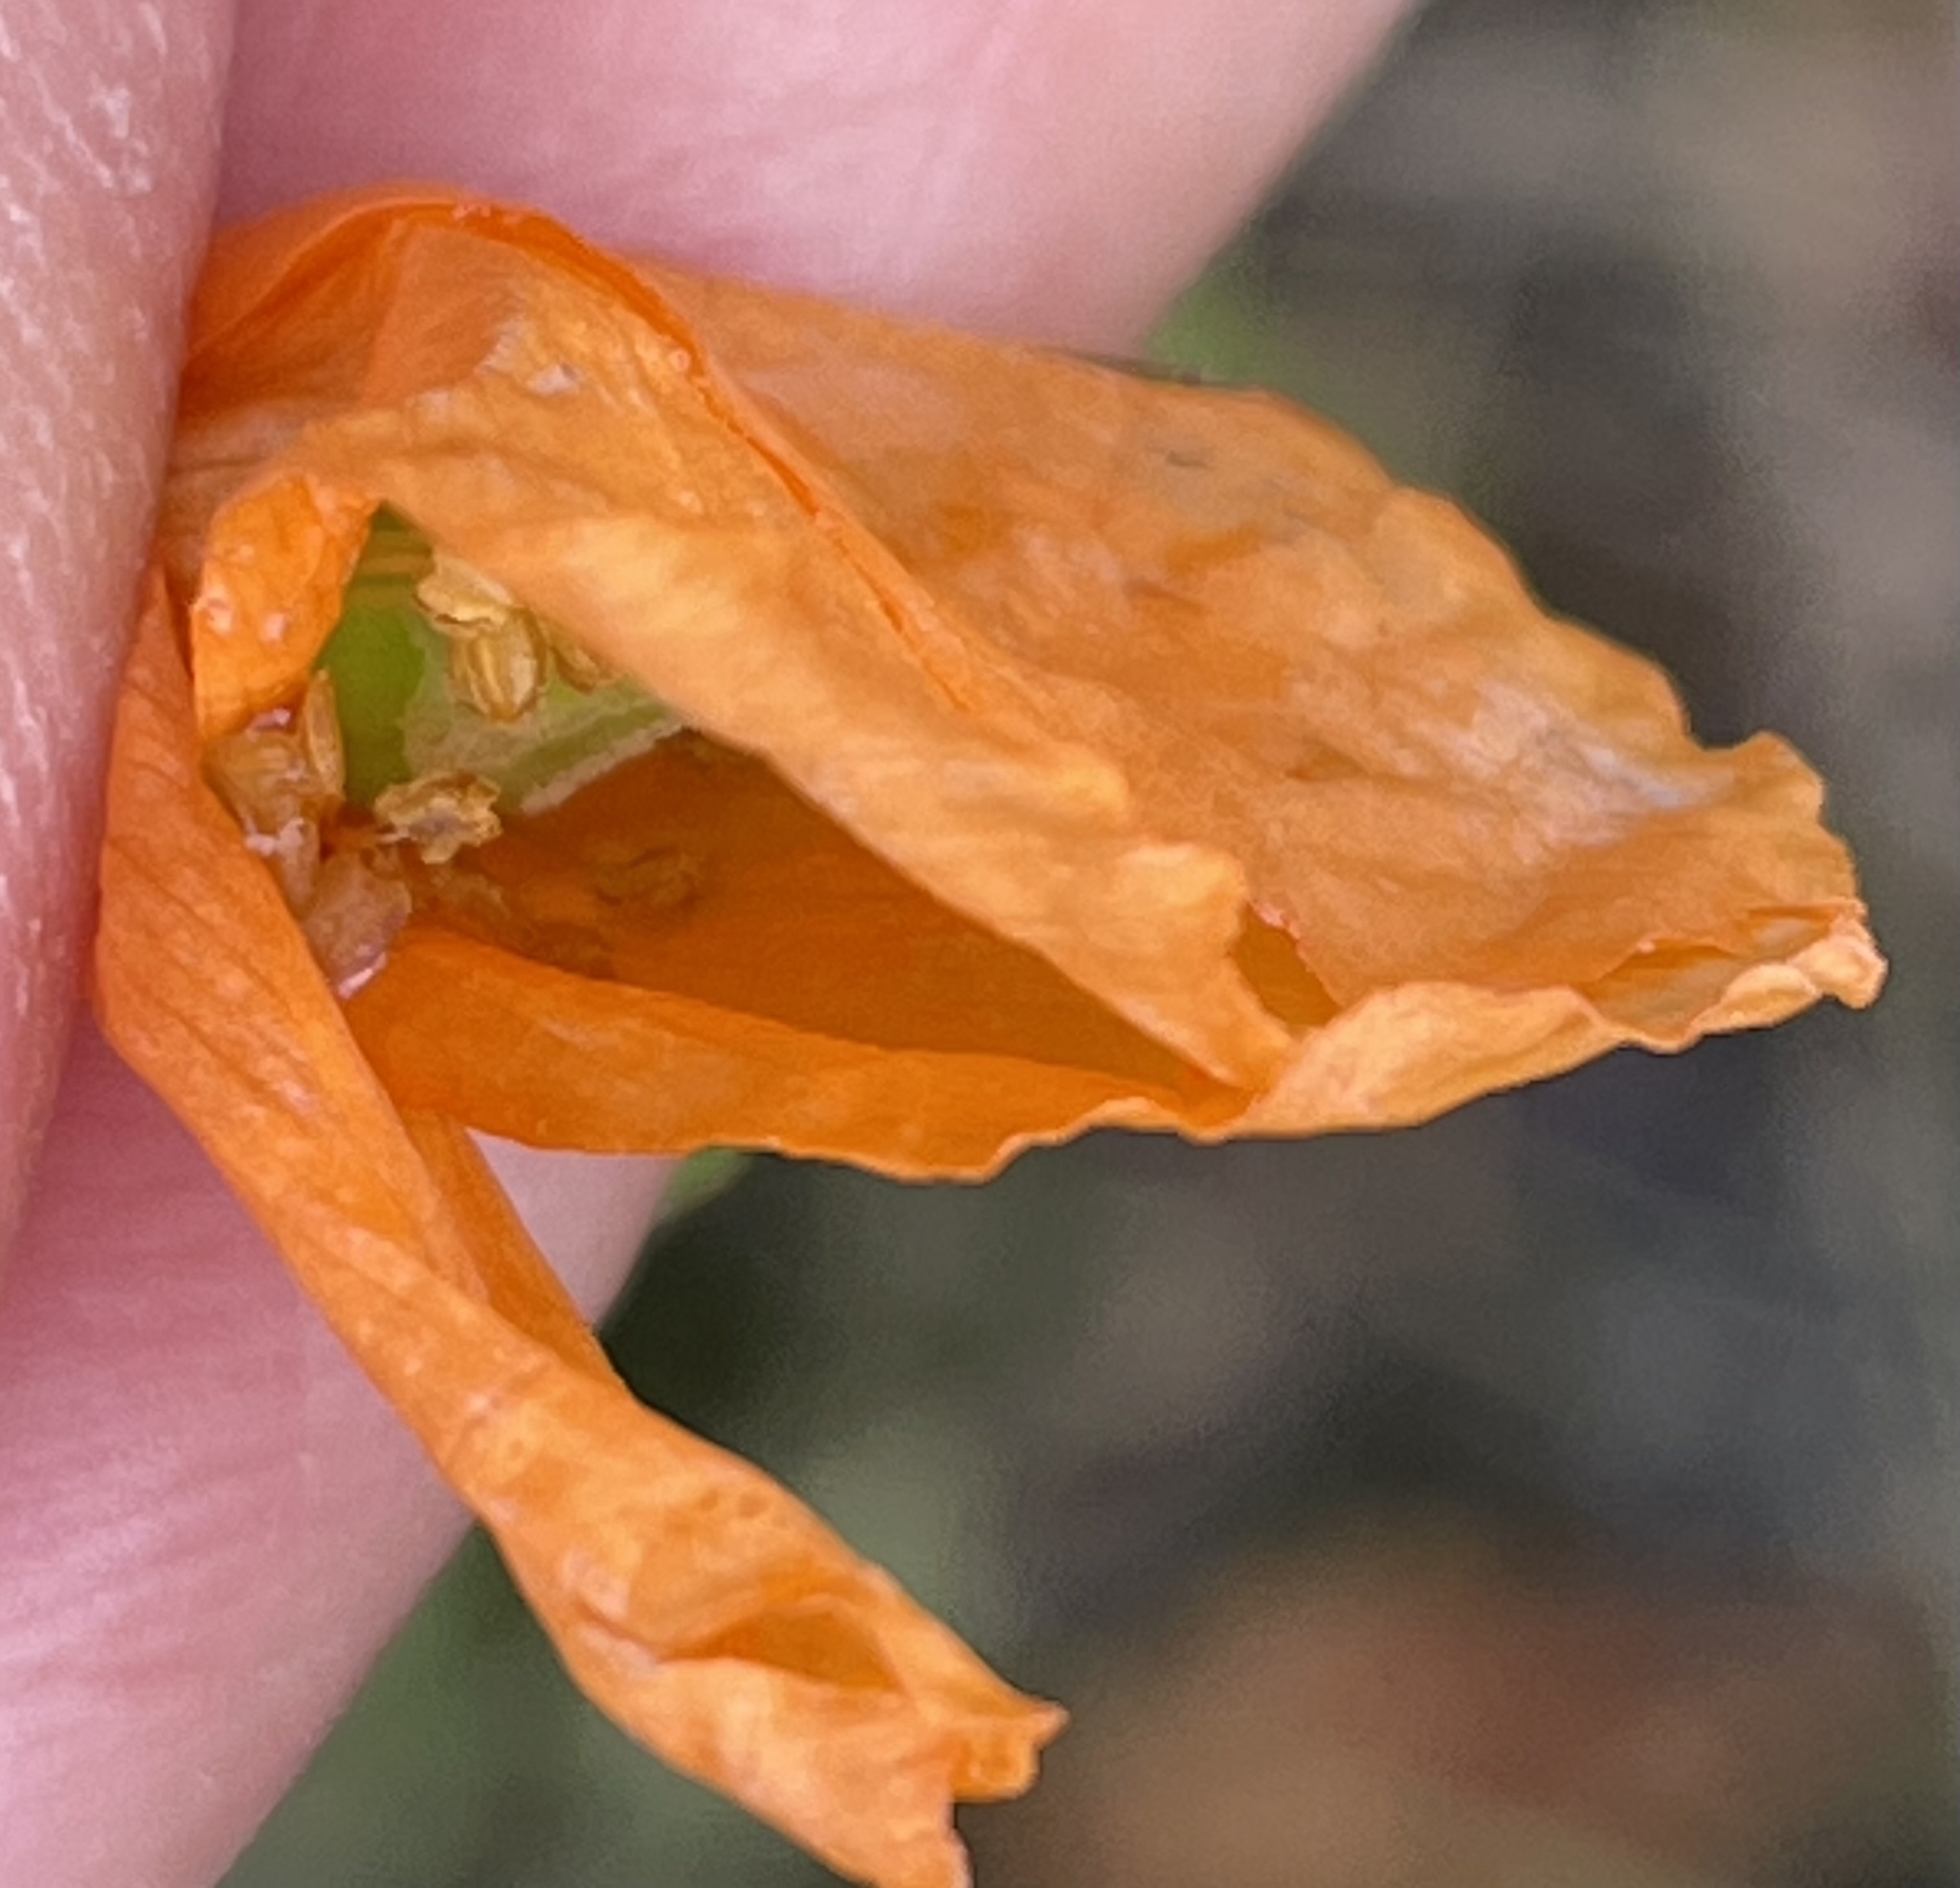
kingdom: Plantae
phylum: Tracheophyta
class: Magnoliopsida
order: Ranunculales
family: Papaveraceae
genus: Papaver
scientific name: Papaver californicum
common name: Fire poppy
